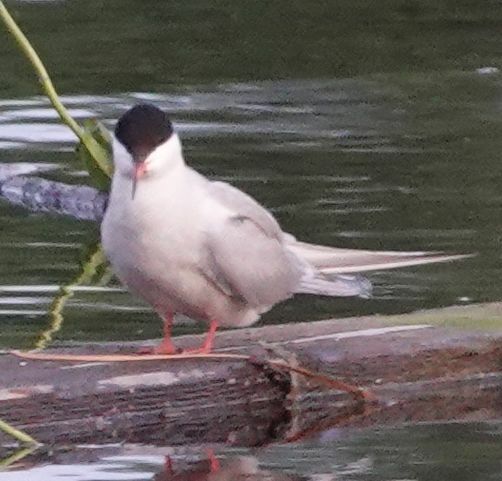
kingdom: Animalia
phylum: Chordata
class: Aves
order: Charadriiformes
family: Laridae
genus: Sterna
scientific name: Sterna hirundo
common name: Common tern
